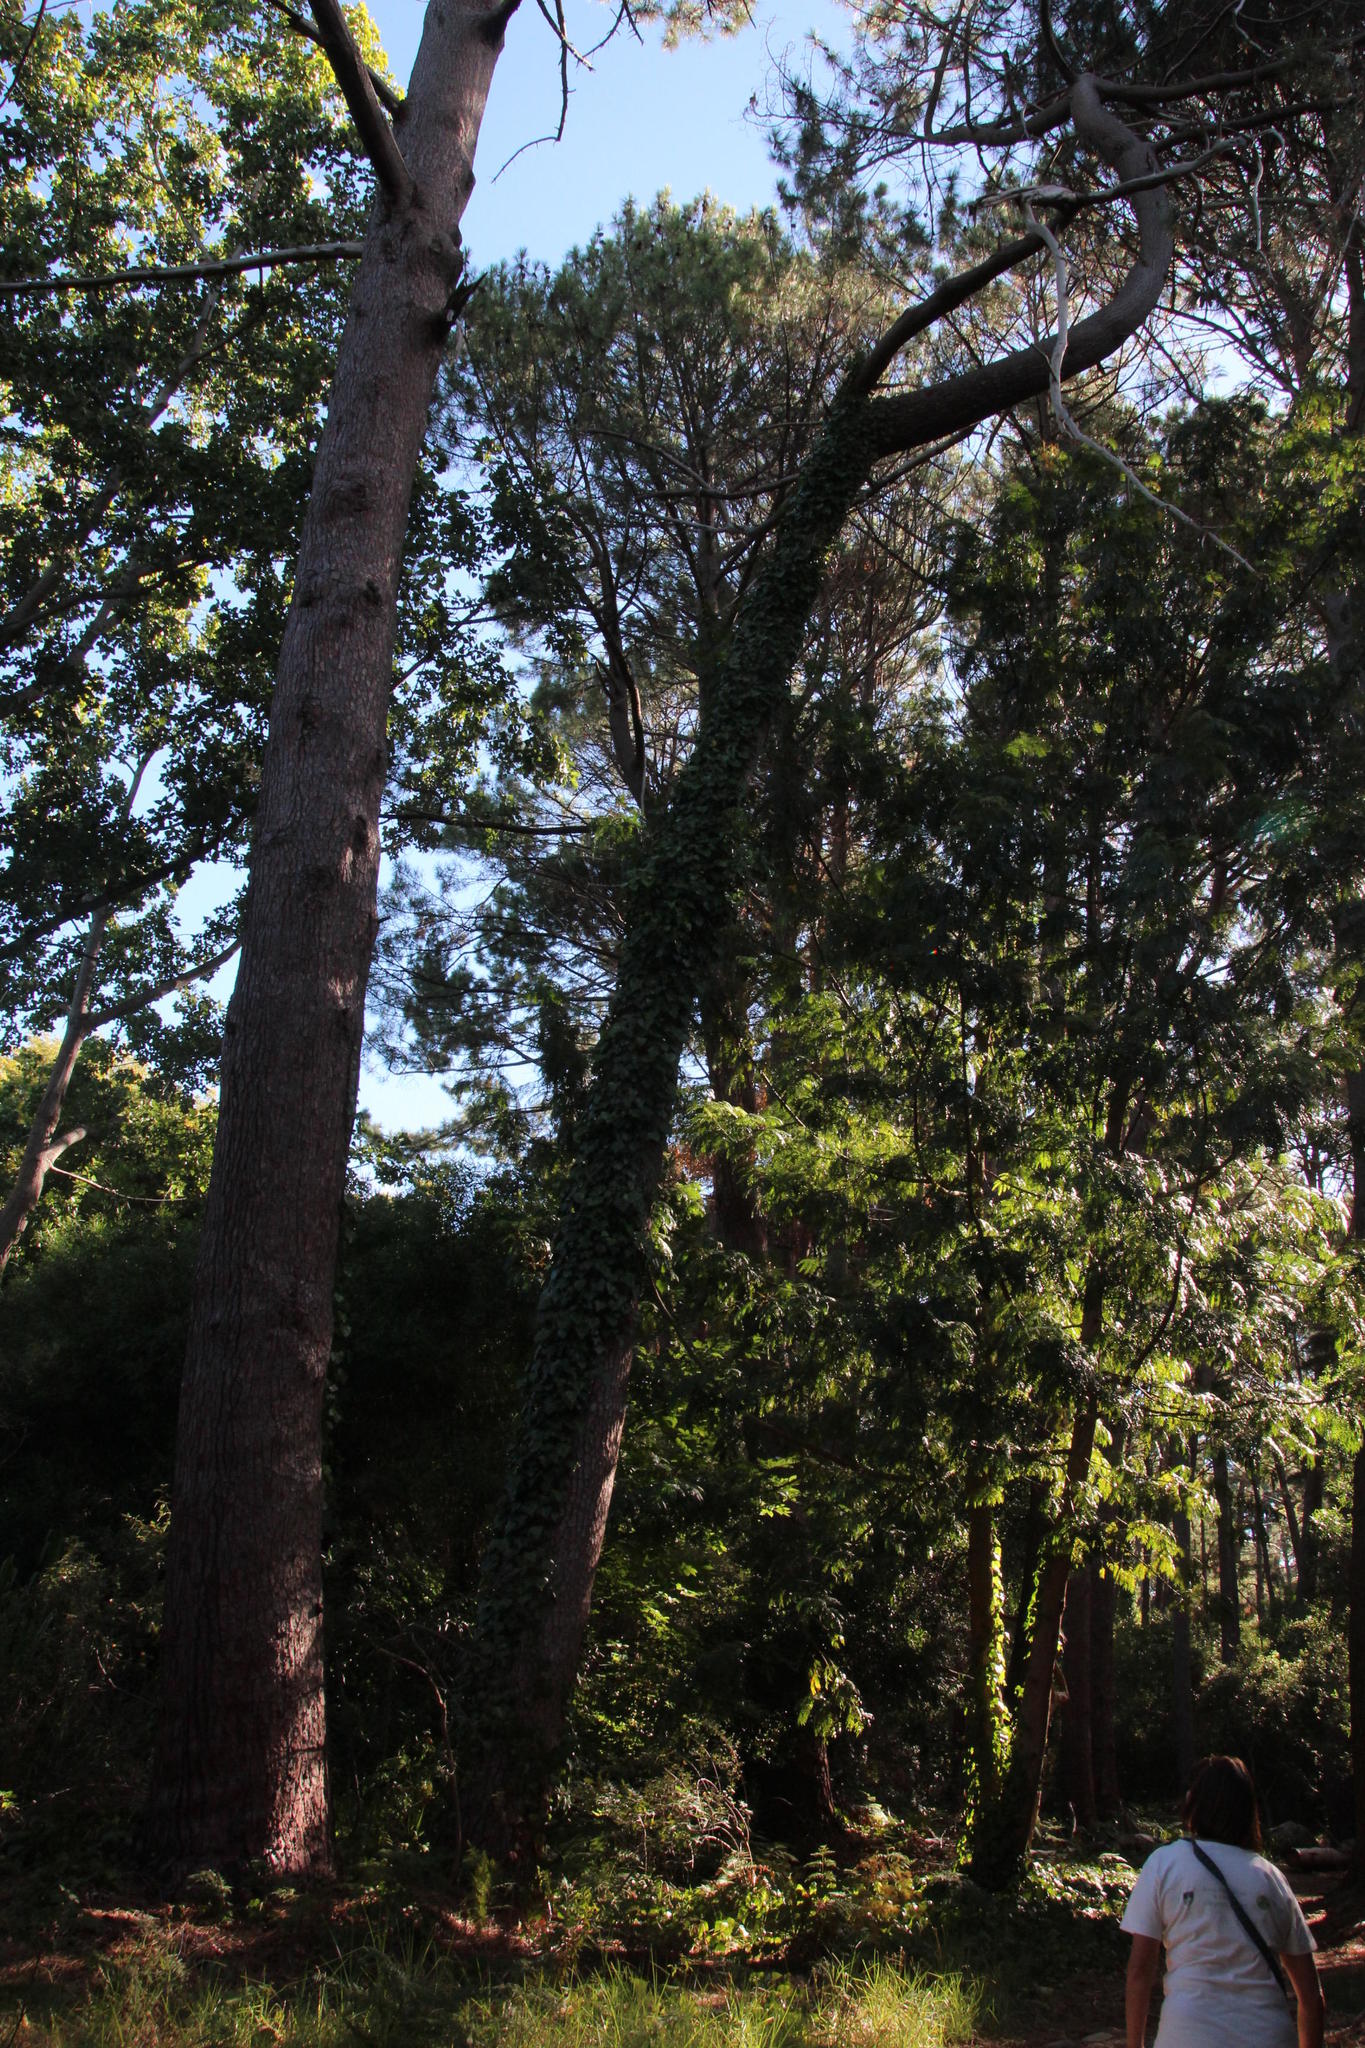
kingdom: Plantae
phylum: Tracheophyta
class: Magnoliopsida
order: Apiales
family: Araliaceae
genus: Hedera
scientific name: Hedera helix
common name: Ivy
